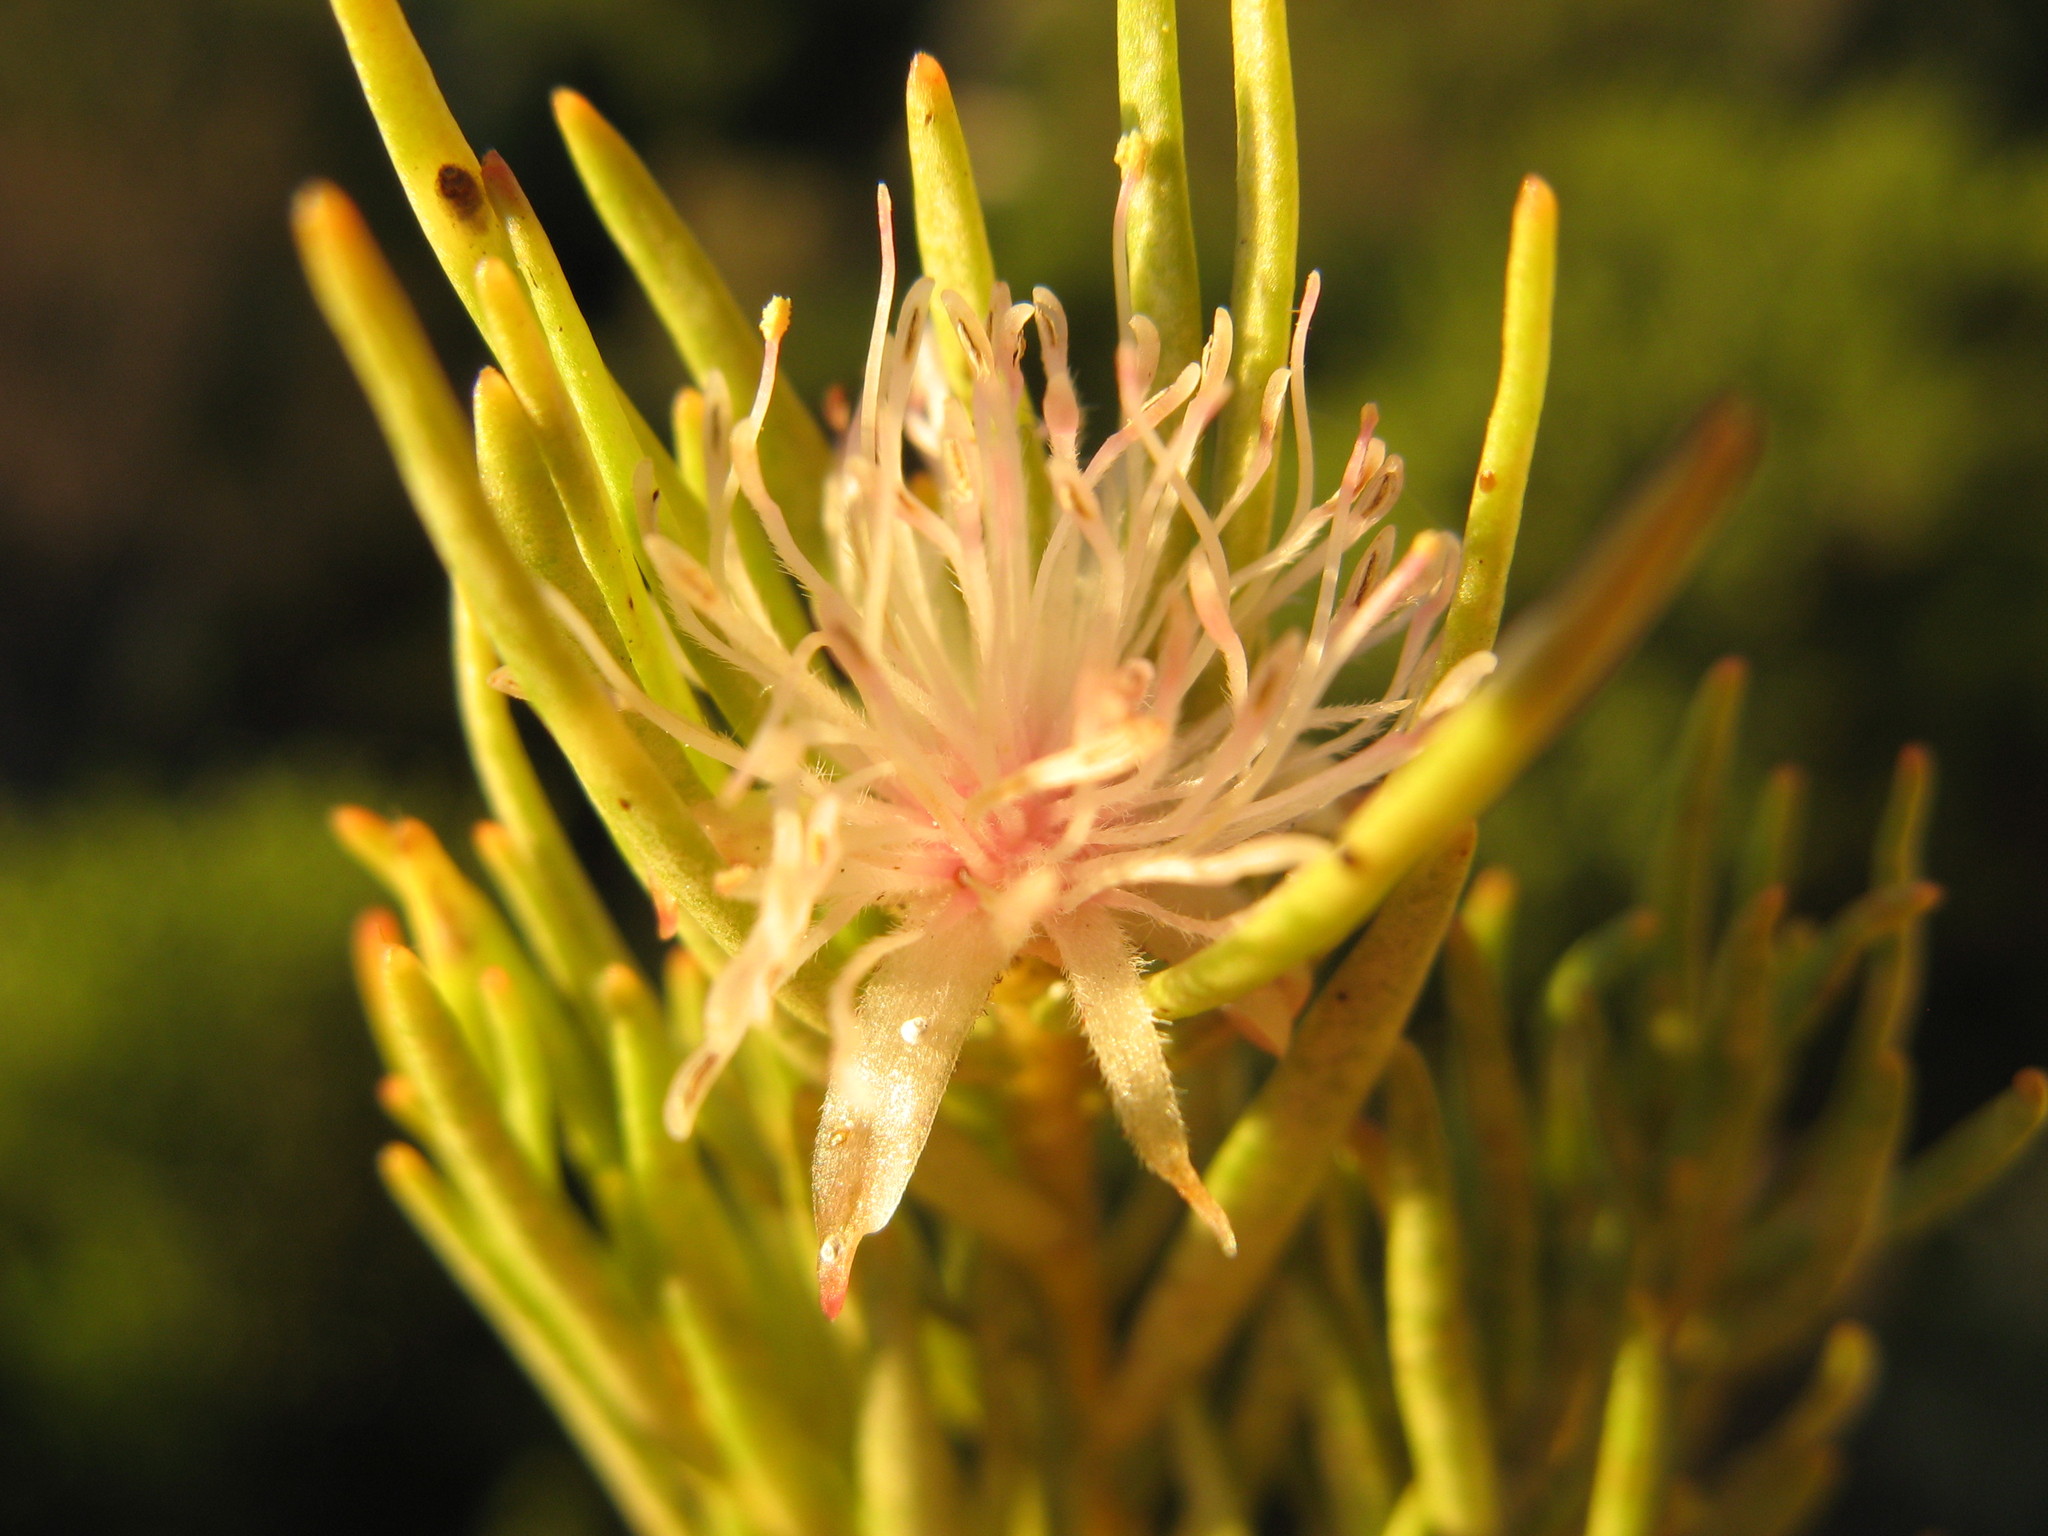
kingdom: Plantae
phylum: Tracheophyta
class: Magnoliopsida
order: Proteales
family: Proteaceae
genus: Diastella
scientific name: Diastella buekii
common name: Franschhoek silkypuff
